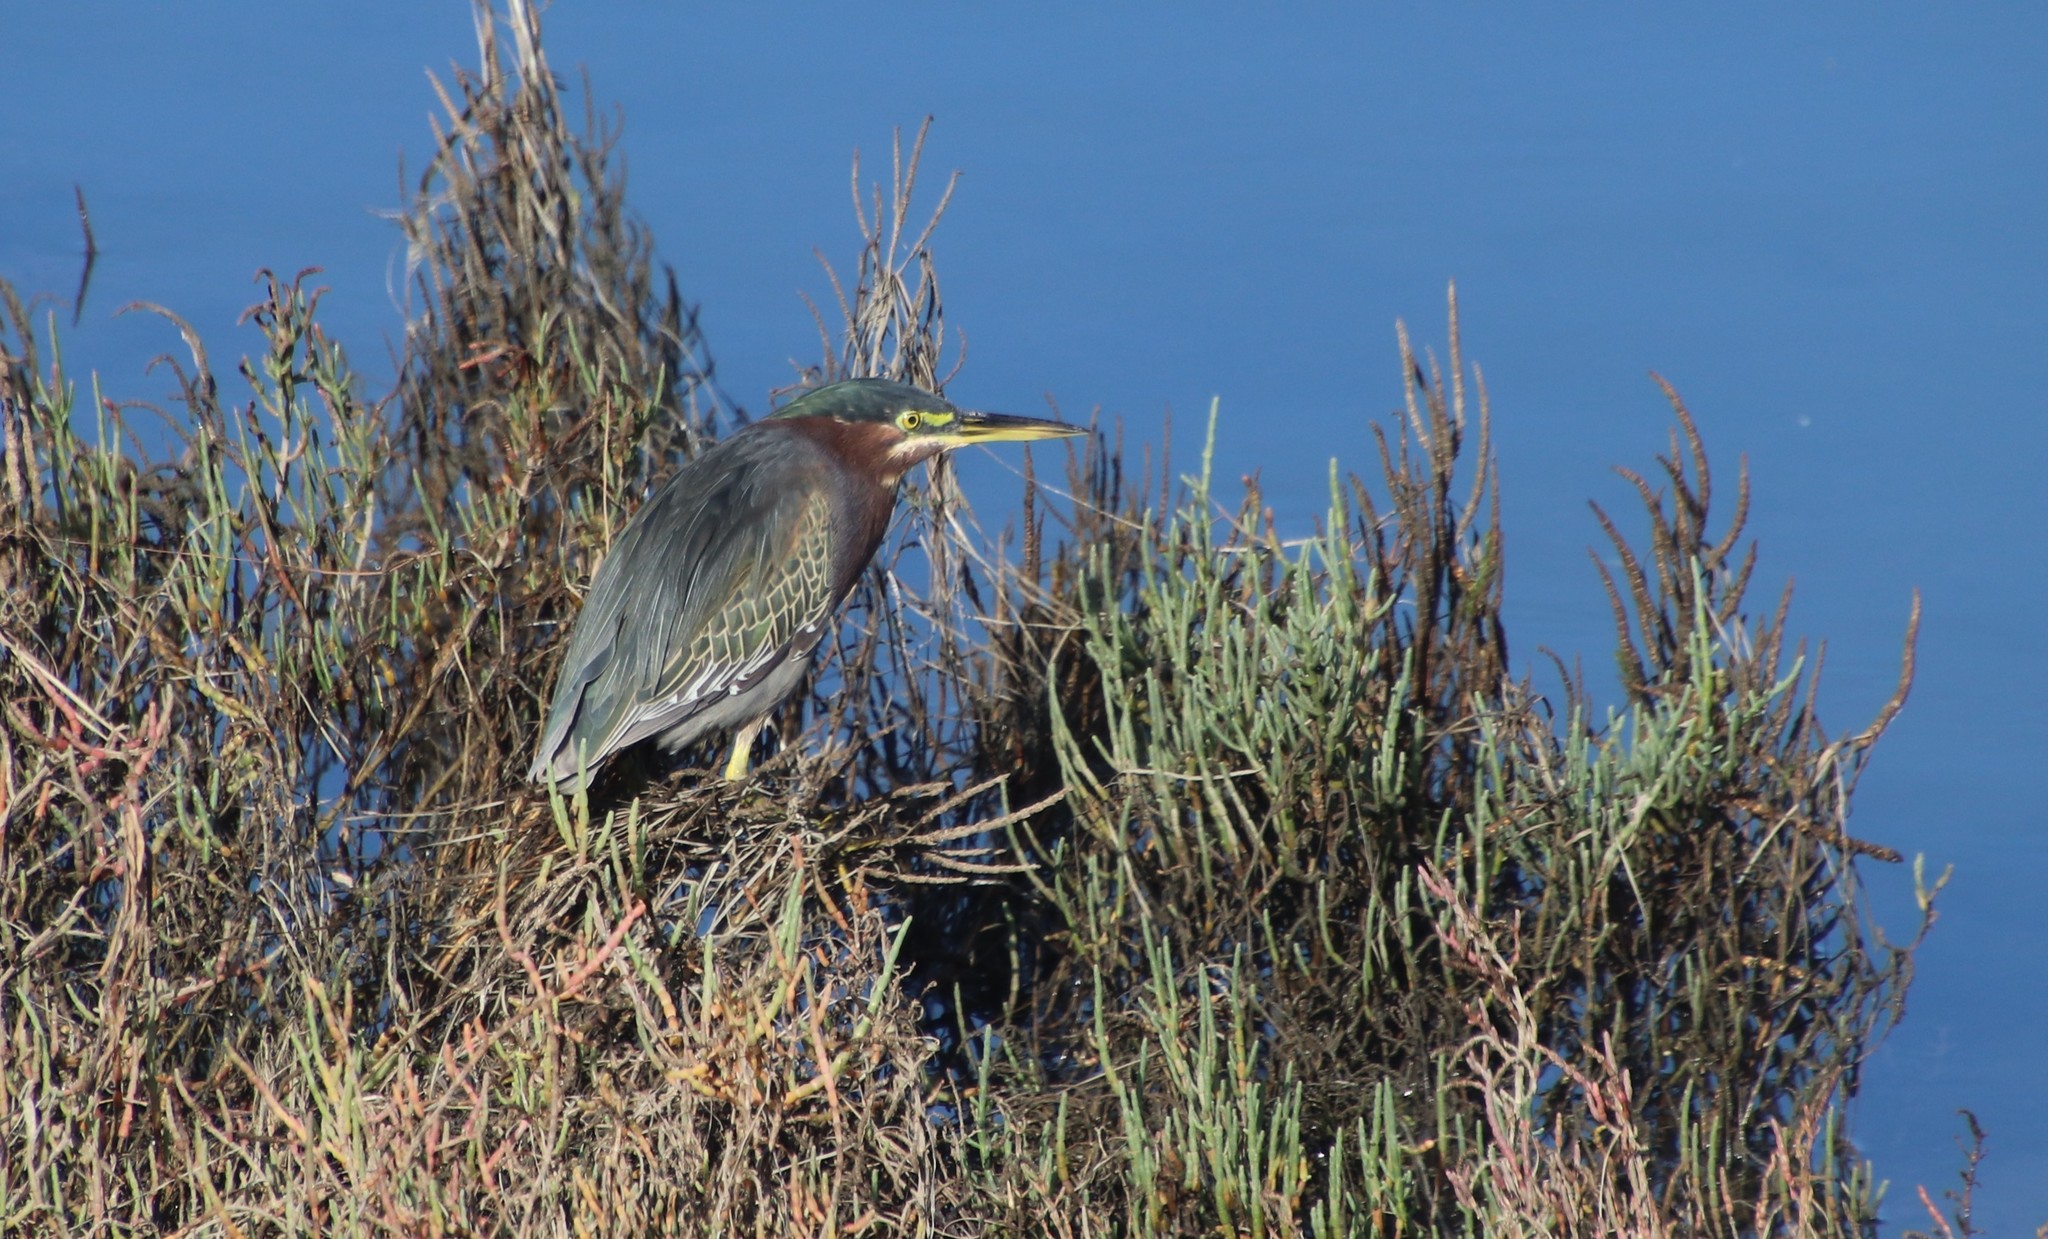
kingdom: Animalia
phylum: Chordata
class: Aves
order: Pelecaniformes
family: Ardeidae
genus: Butorides
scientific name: Butorides virescens
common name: Green heron
